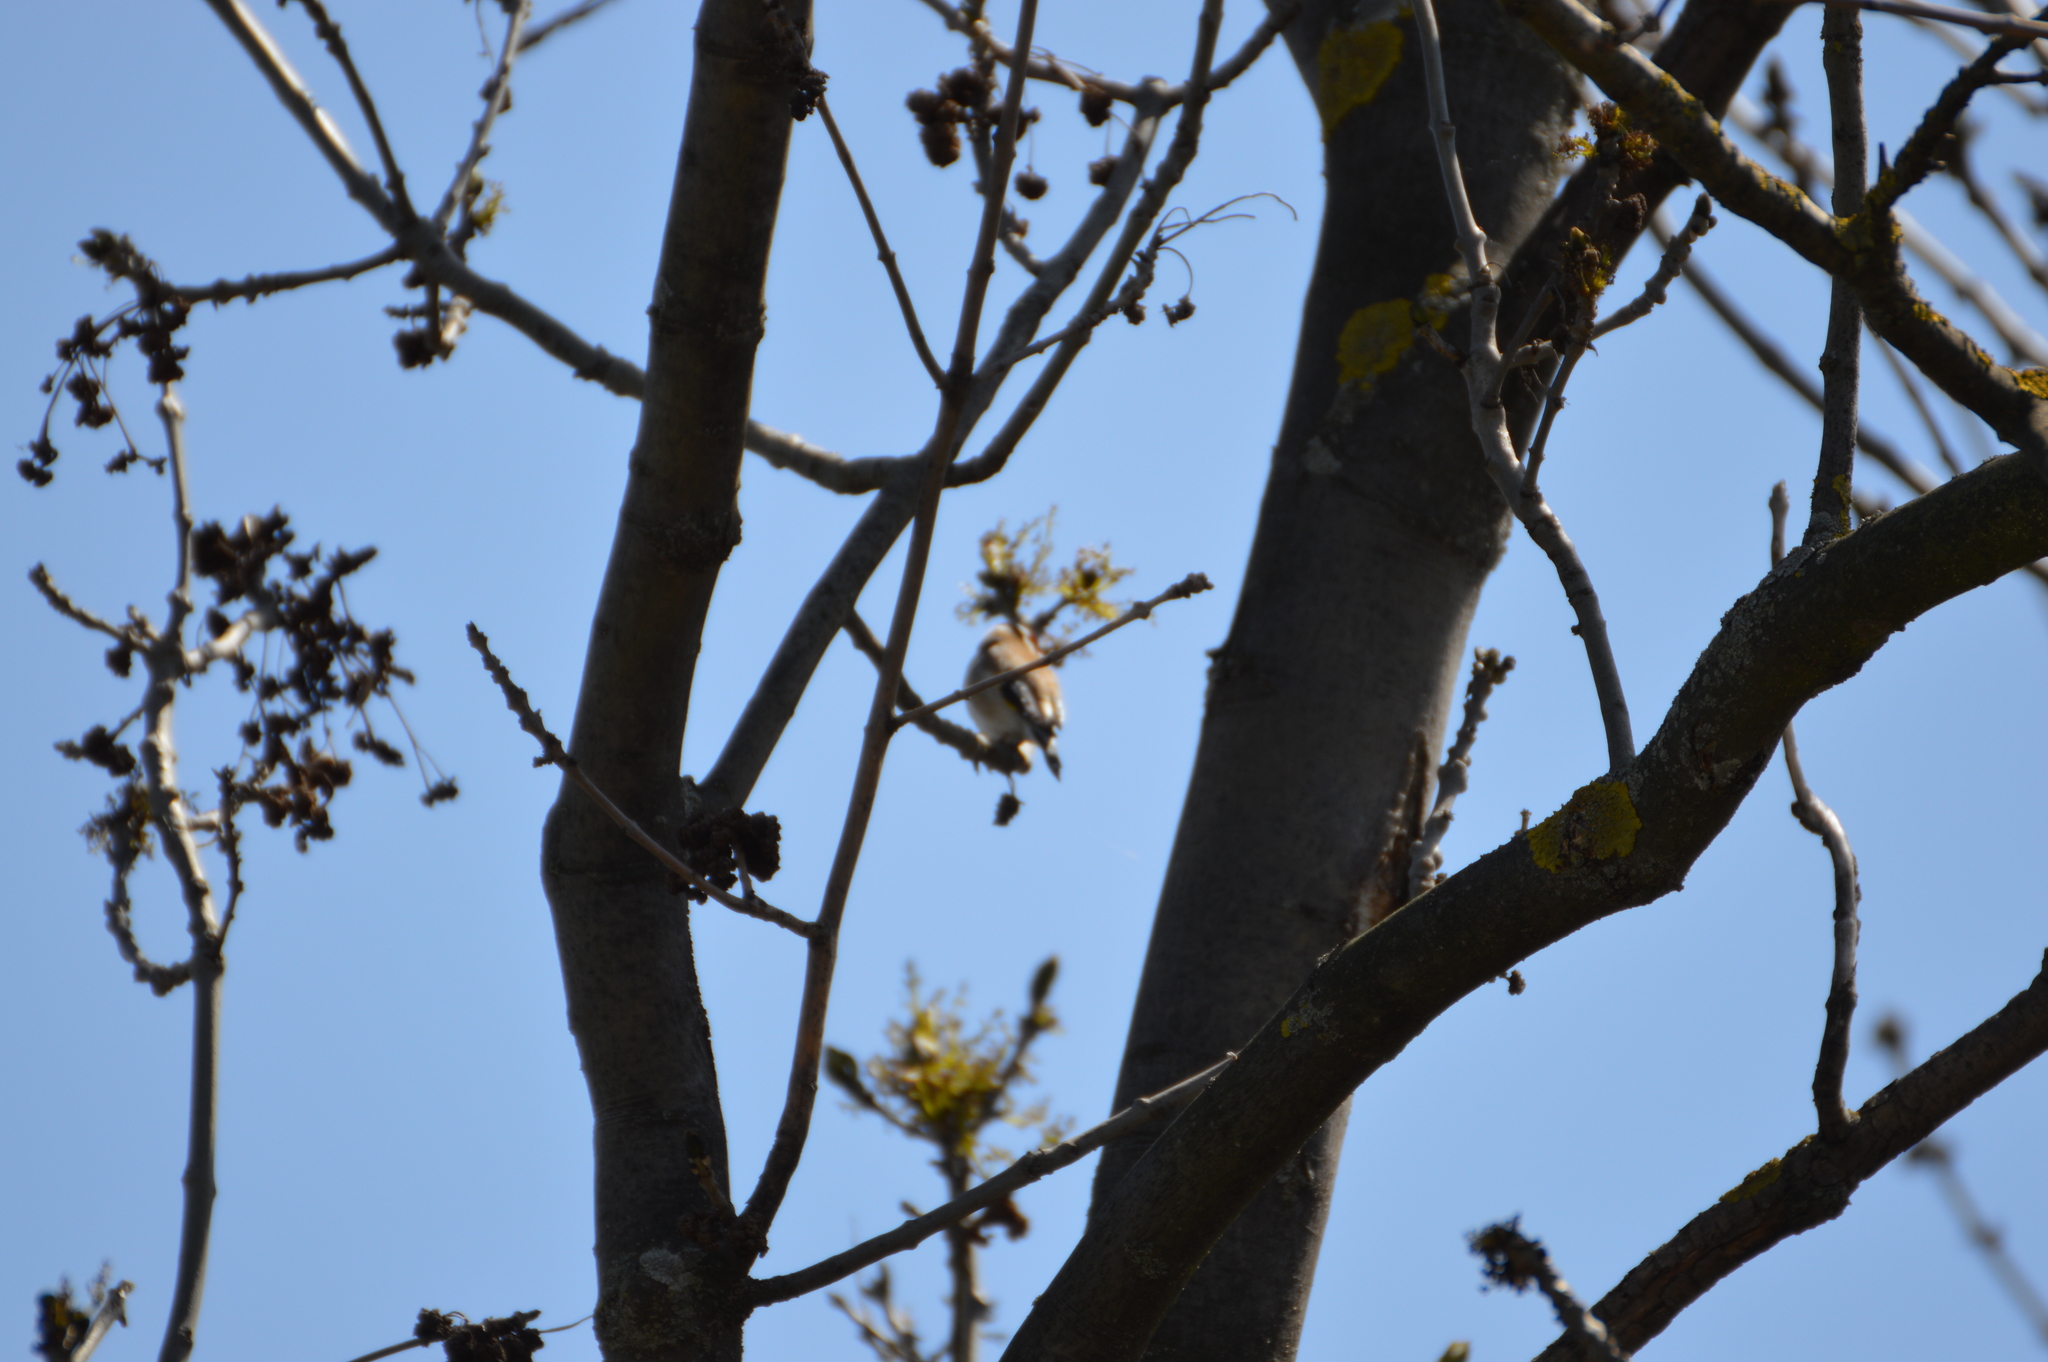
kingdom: Animalia
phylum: Chordata
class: Aves
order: Passeriformes
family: Fringillidae
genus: Carduelis
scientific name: Carduelis carduelis
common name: European goldfinch
